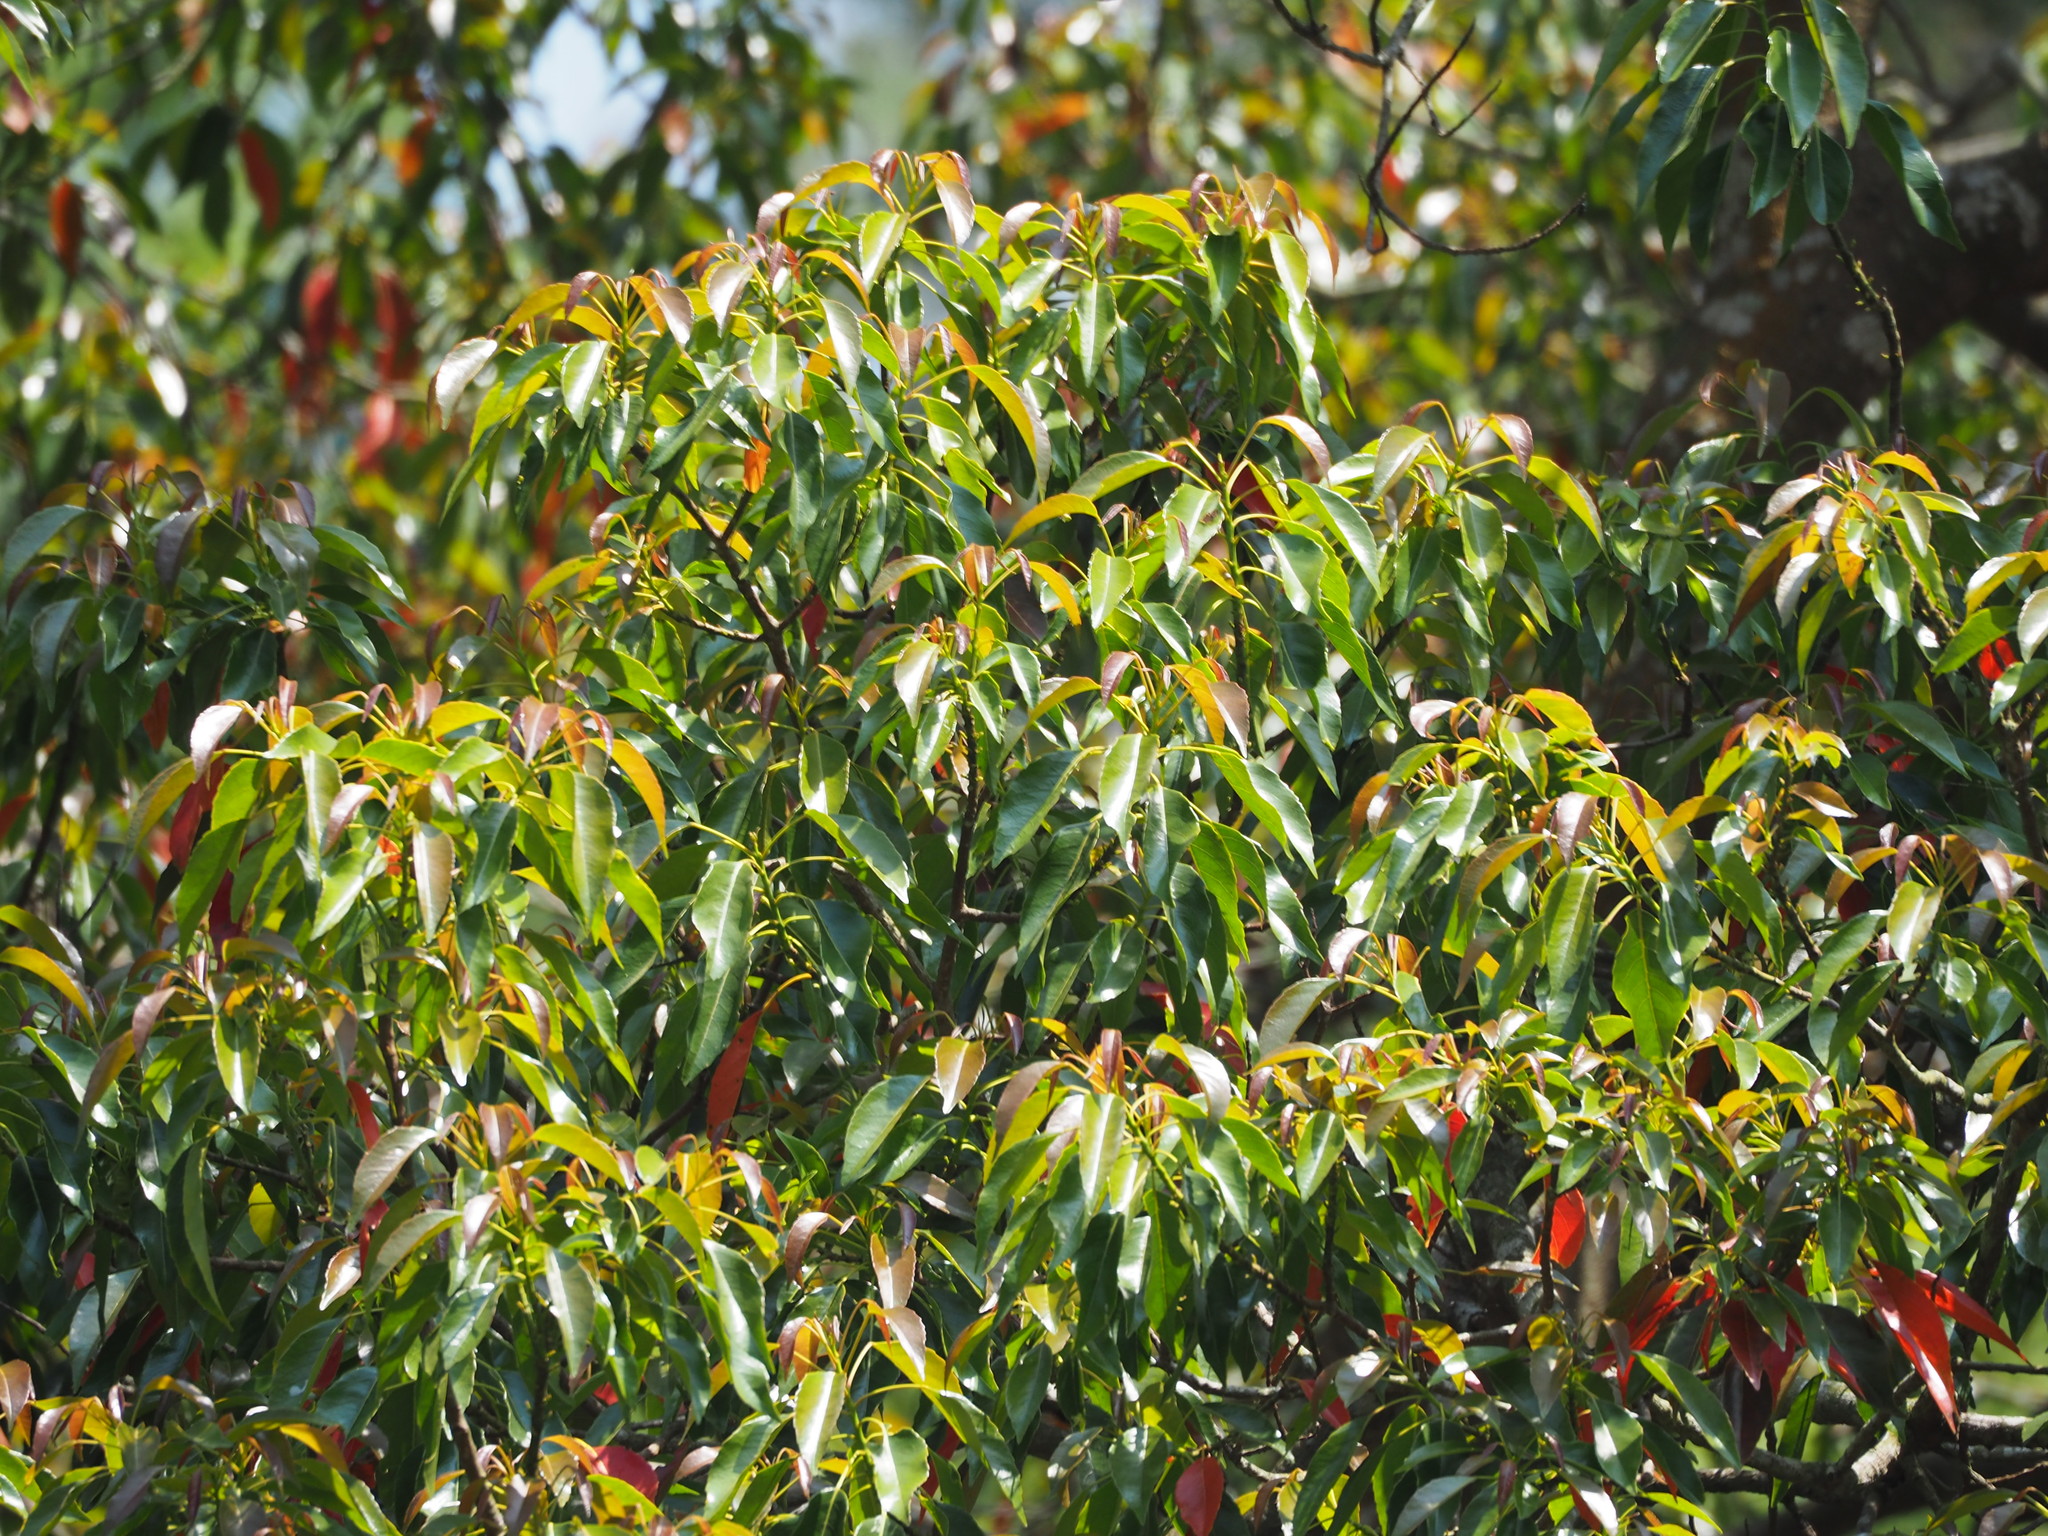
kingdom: Plantae
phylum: Tracheophyta
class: Magnoliopsida
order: Oxalidales
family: Elaeocarpaceae
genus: Elaeocarpus
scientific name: Elaeocarpus serratus
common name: Ceylon-olive
